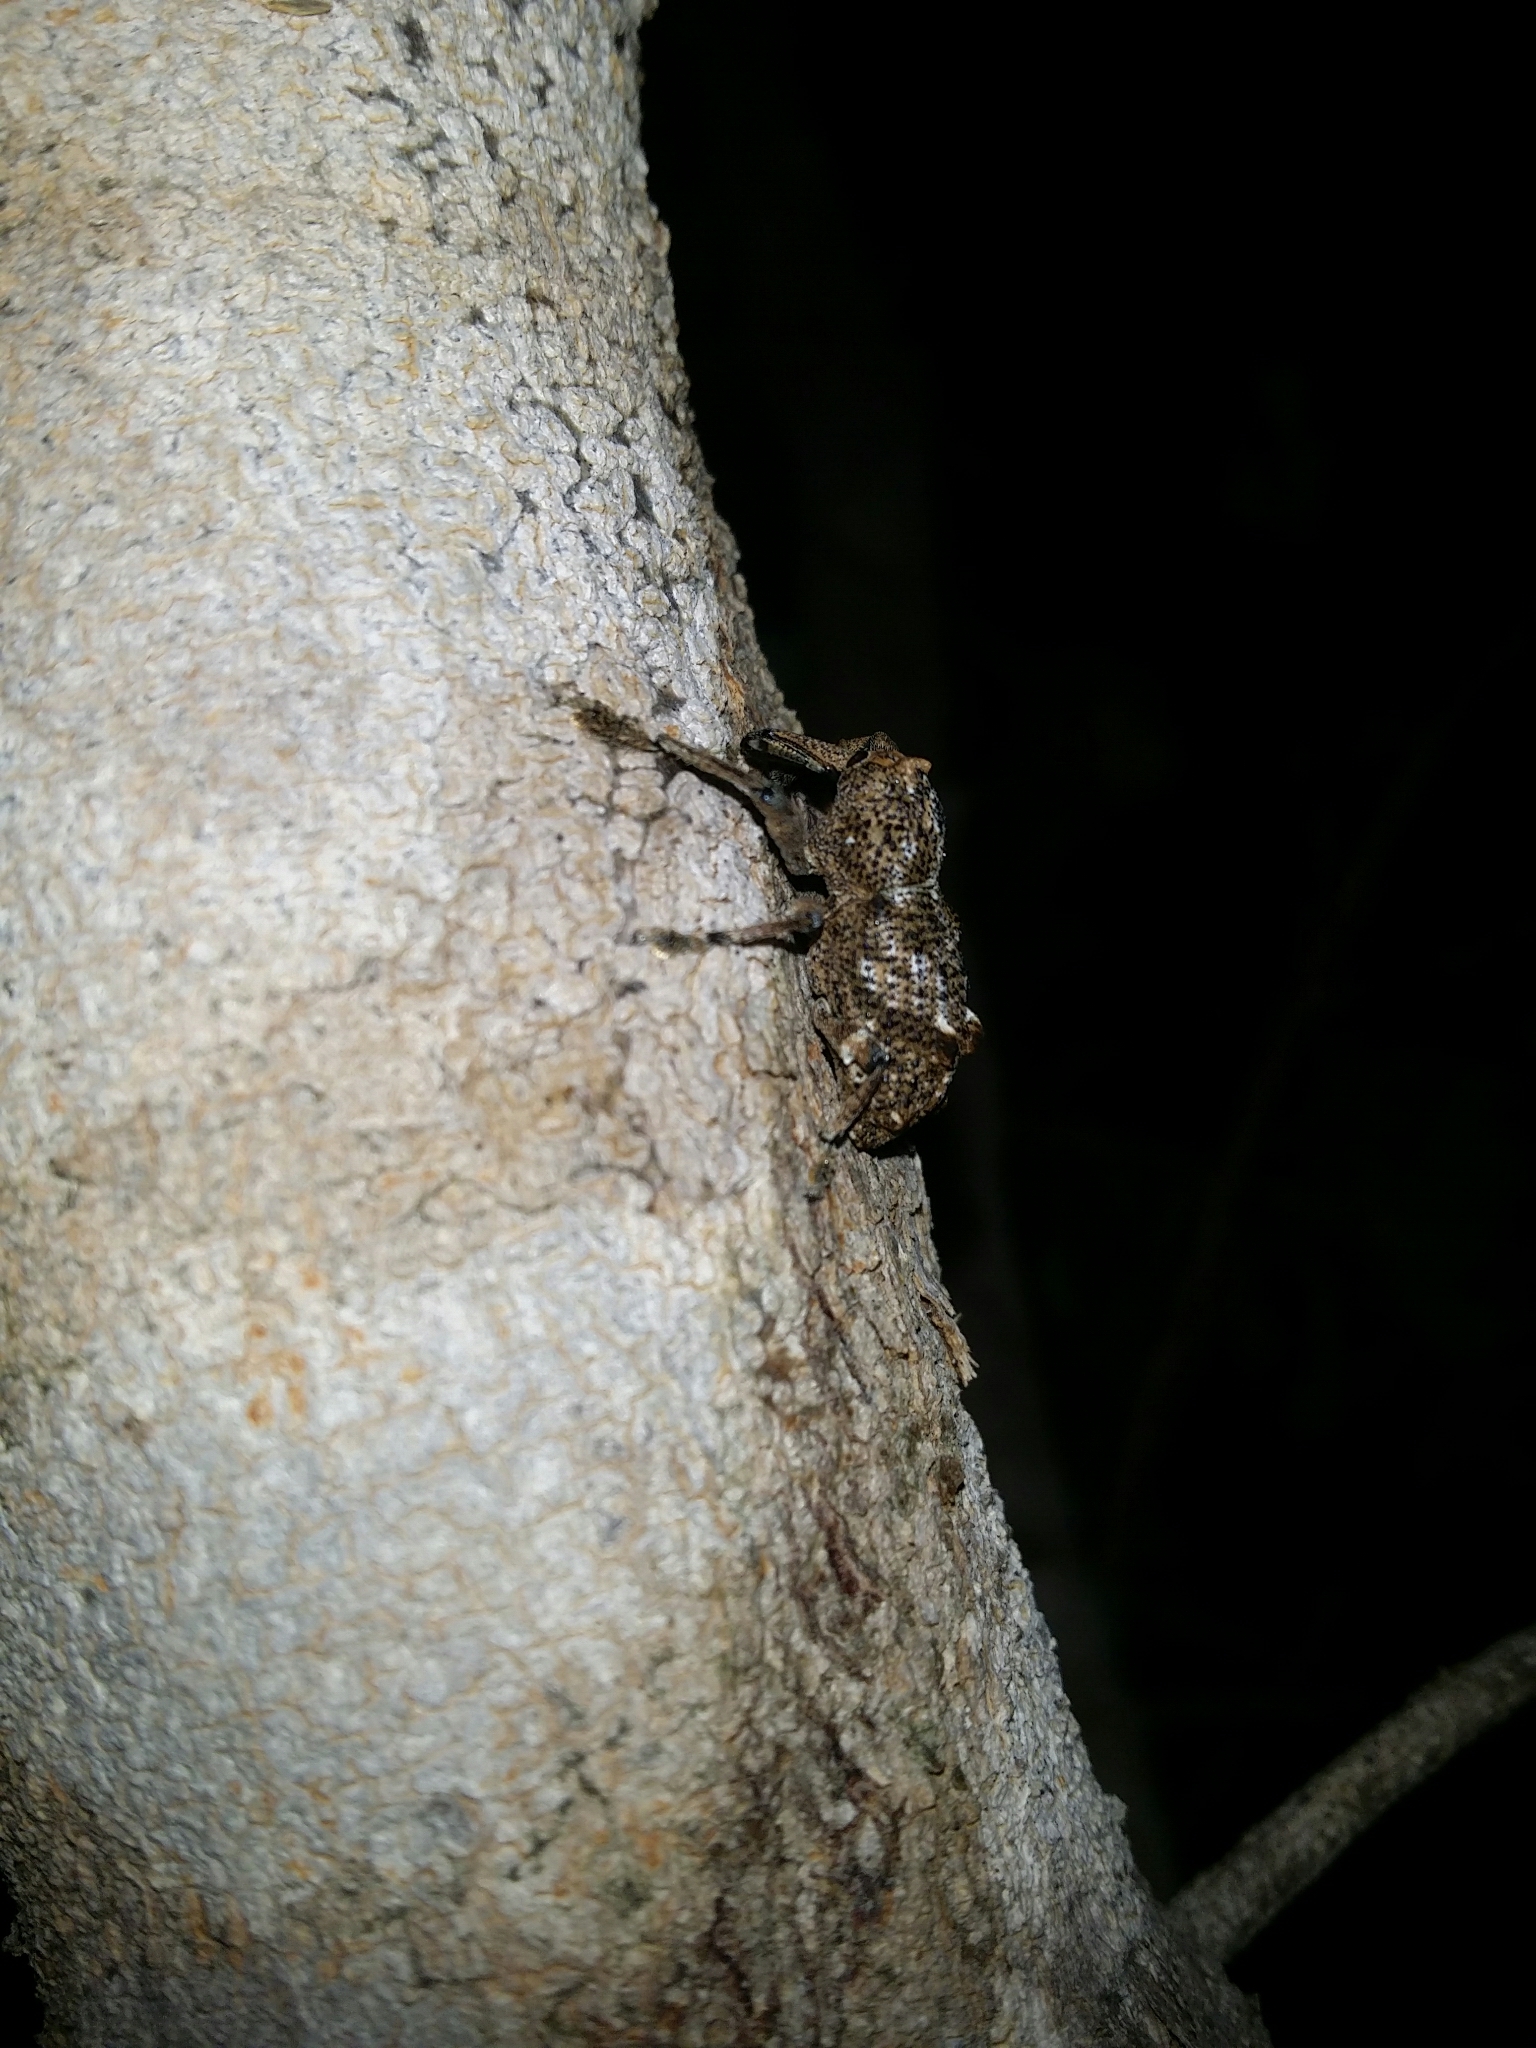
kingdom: Animalia
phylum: Arthropoda
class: Insecta
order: Coleoptera
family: Curculionidae
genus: Orthorhinus
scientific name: Orthorhinus cylindrirostris
